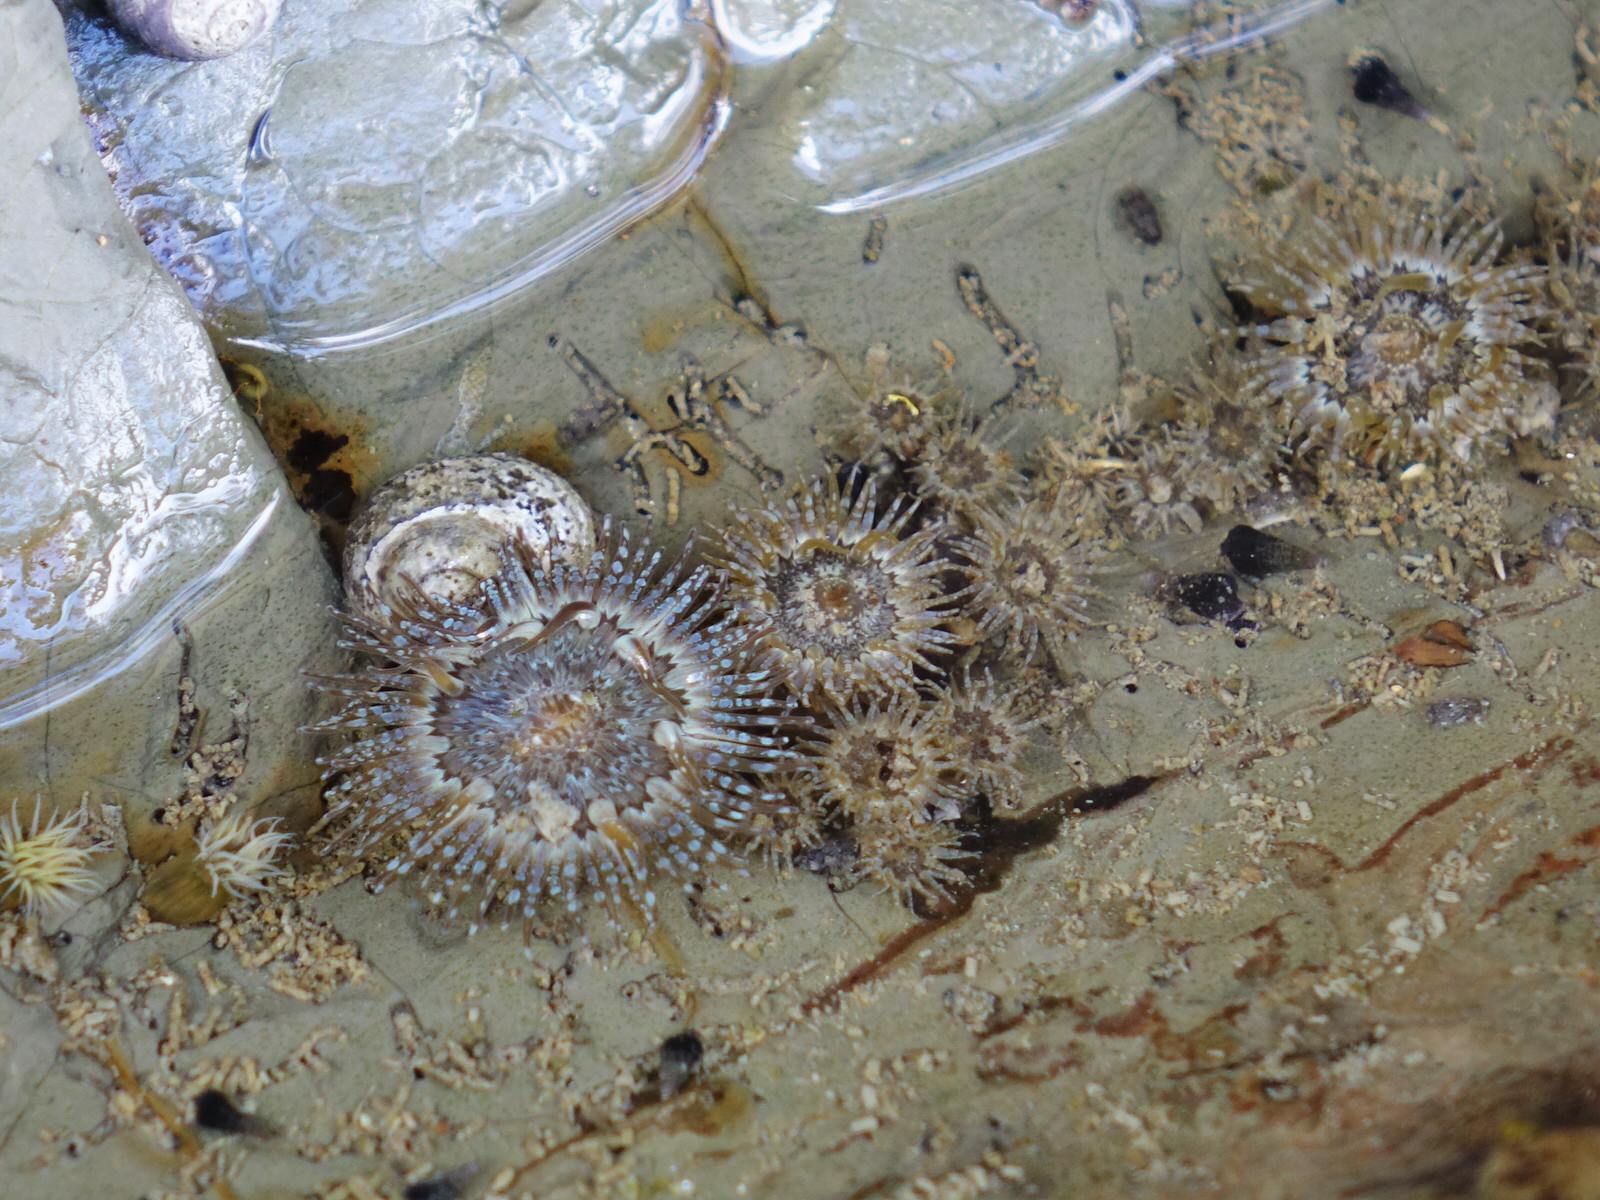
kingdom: Animalia
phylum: Cnidaria
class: Anthozoa
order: Actiniaria
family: Actiniidae
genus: Anthopleura
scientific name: Anthopleura hermaphroditica
